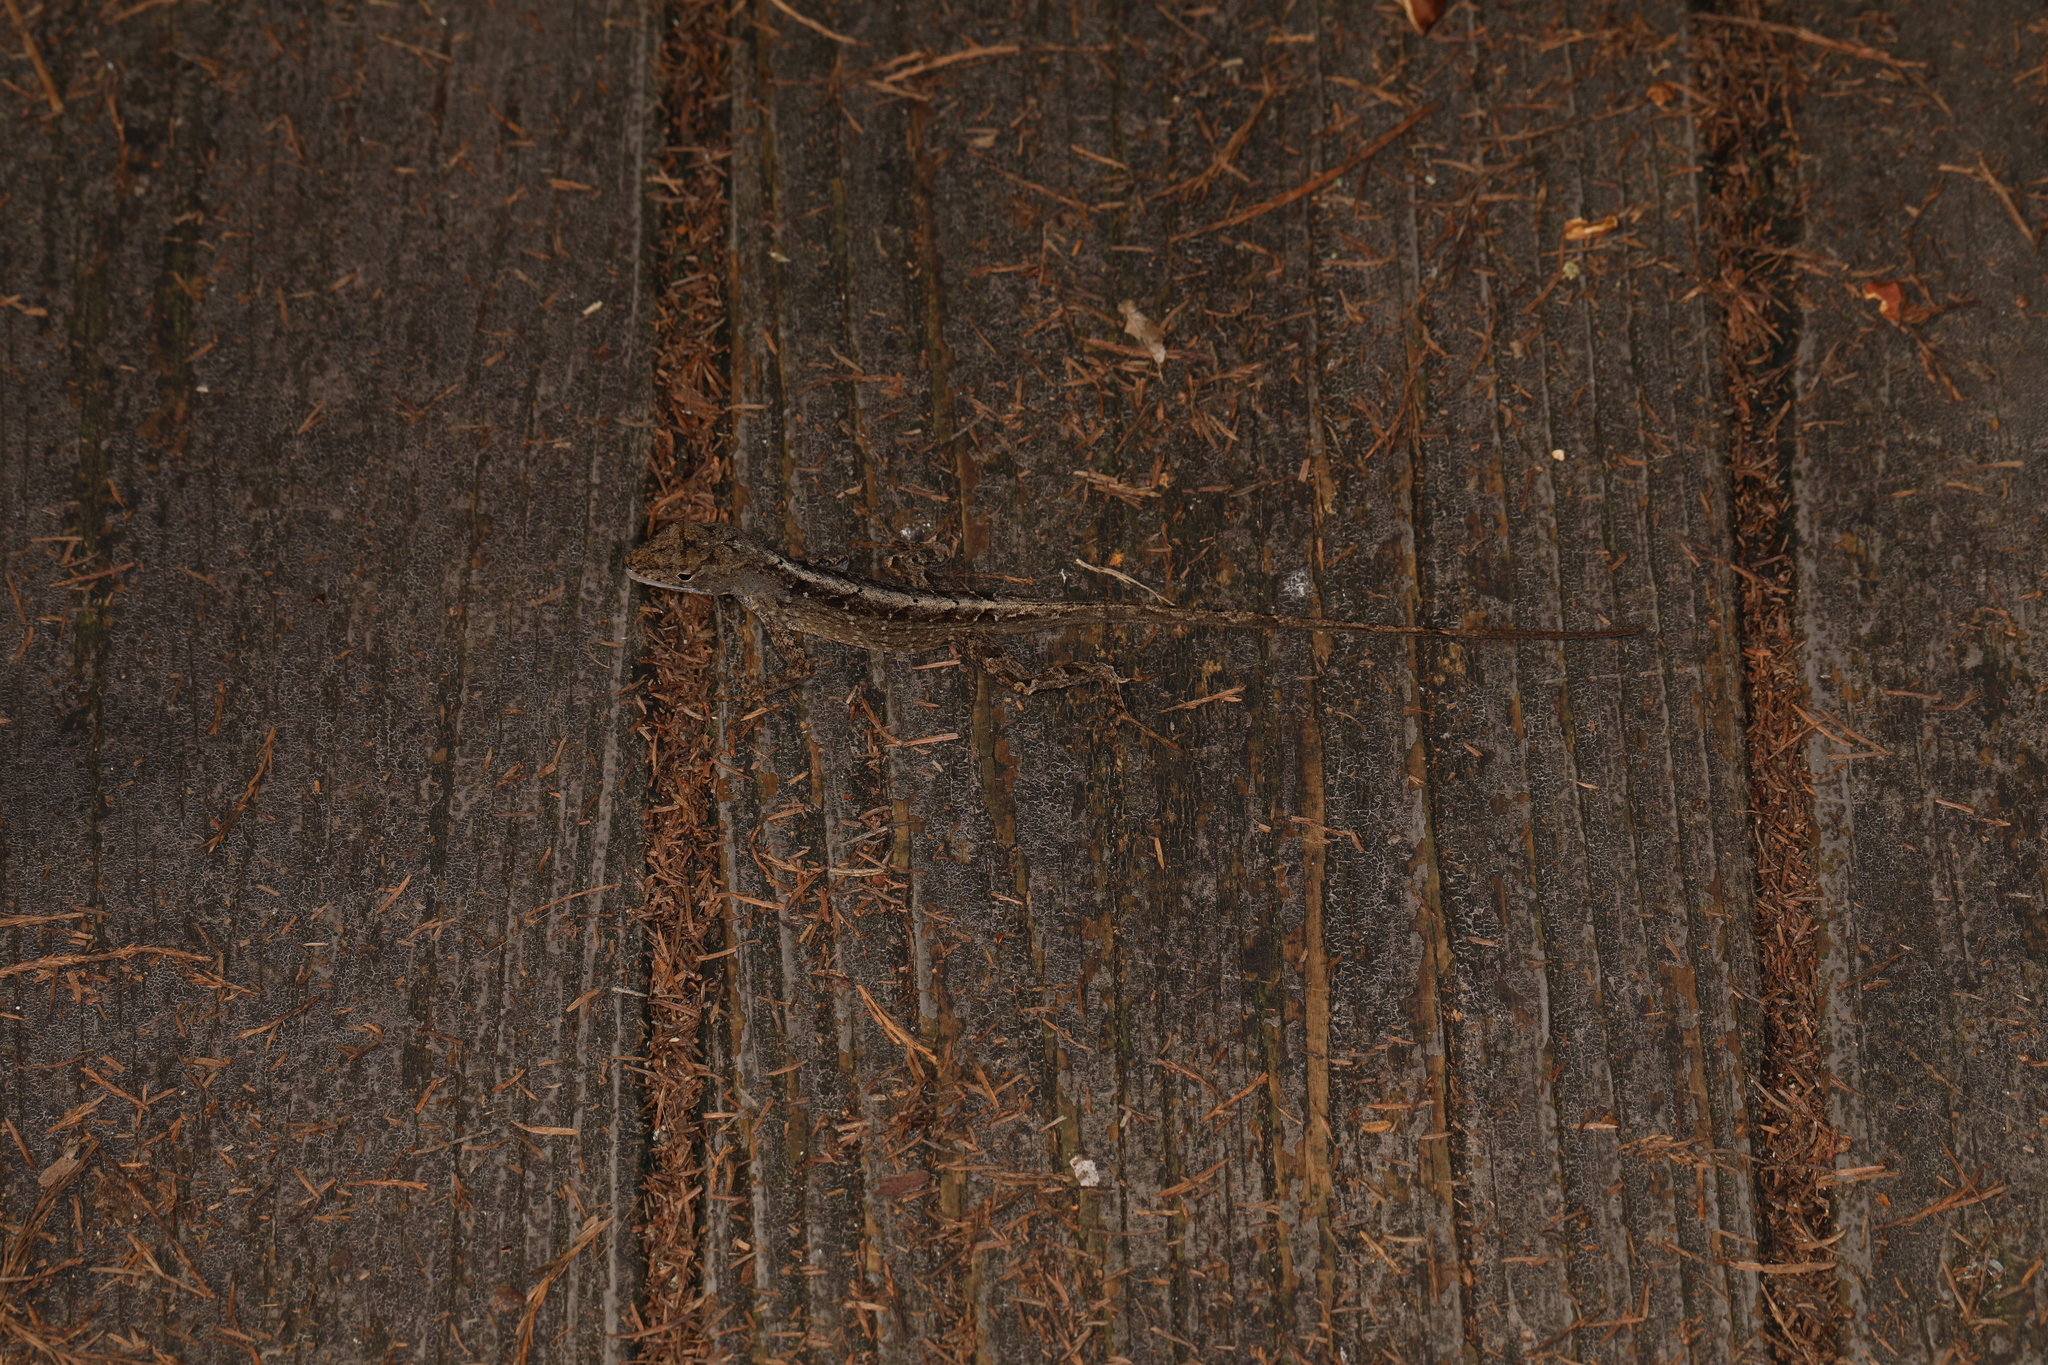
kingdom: Animalia
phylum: Chordata
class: Squamata
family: Dactyloidae
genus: Anolis
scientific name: Anolis sagrei
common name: Brown anole
